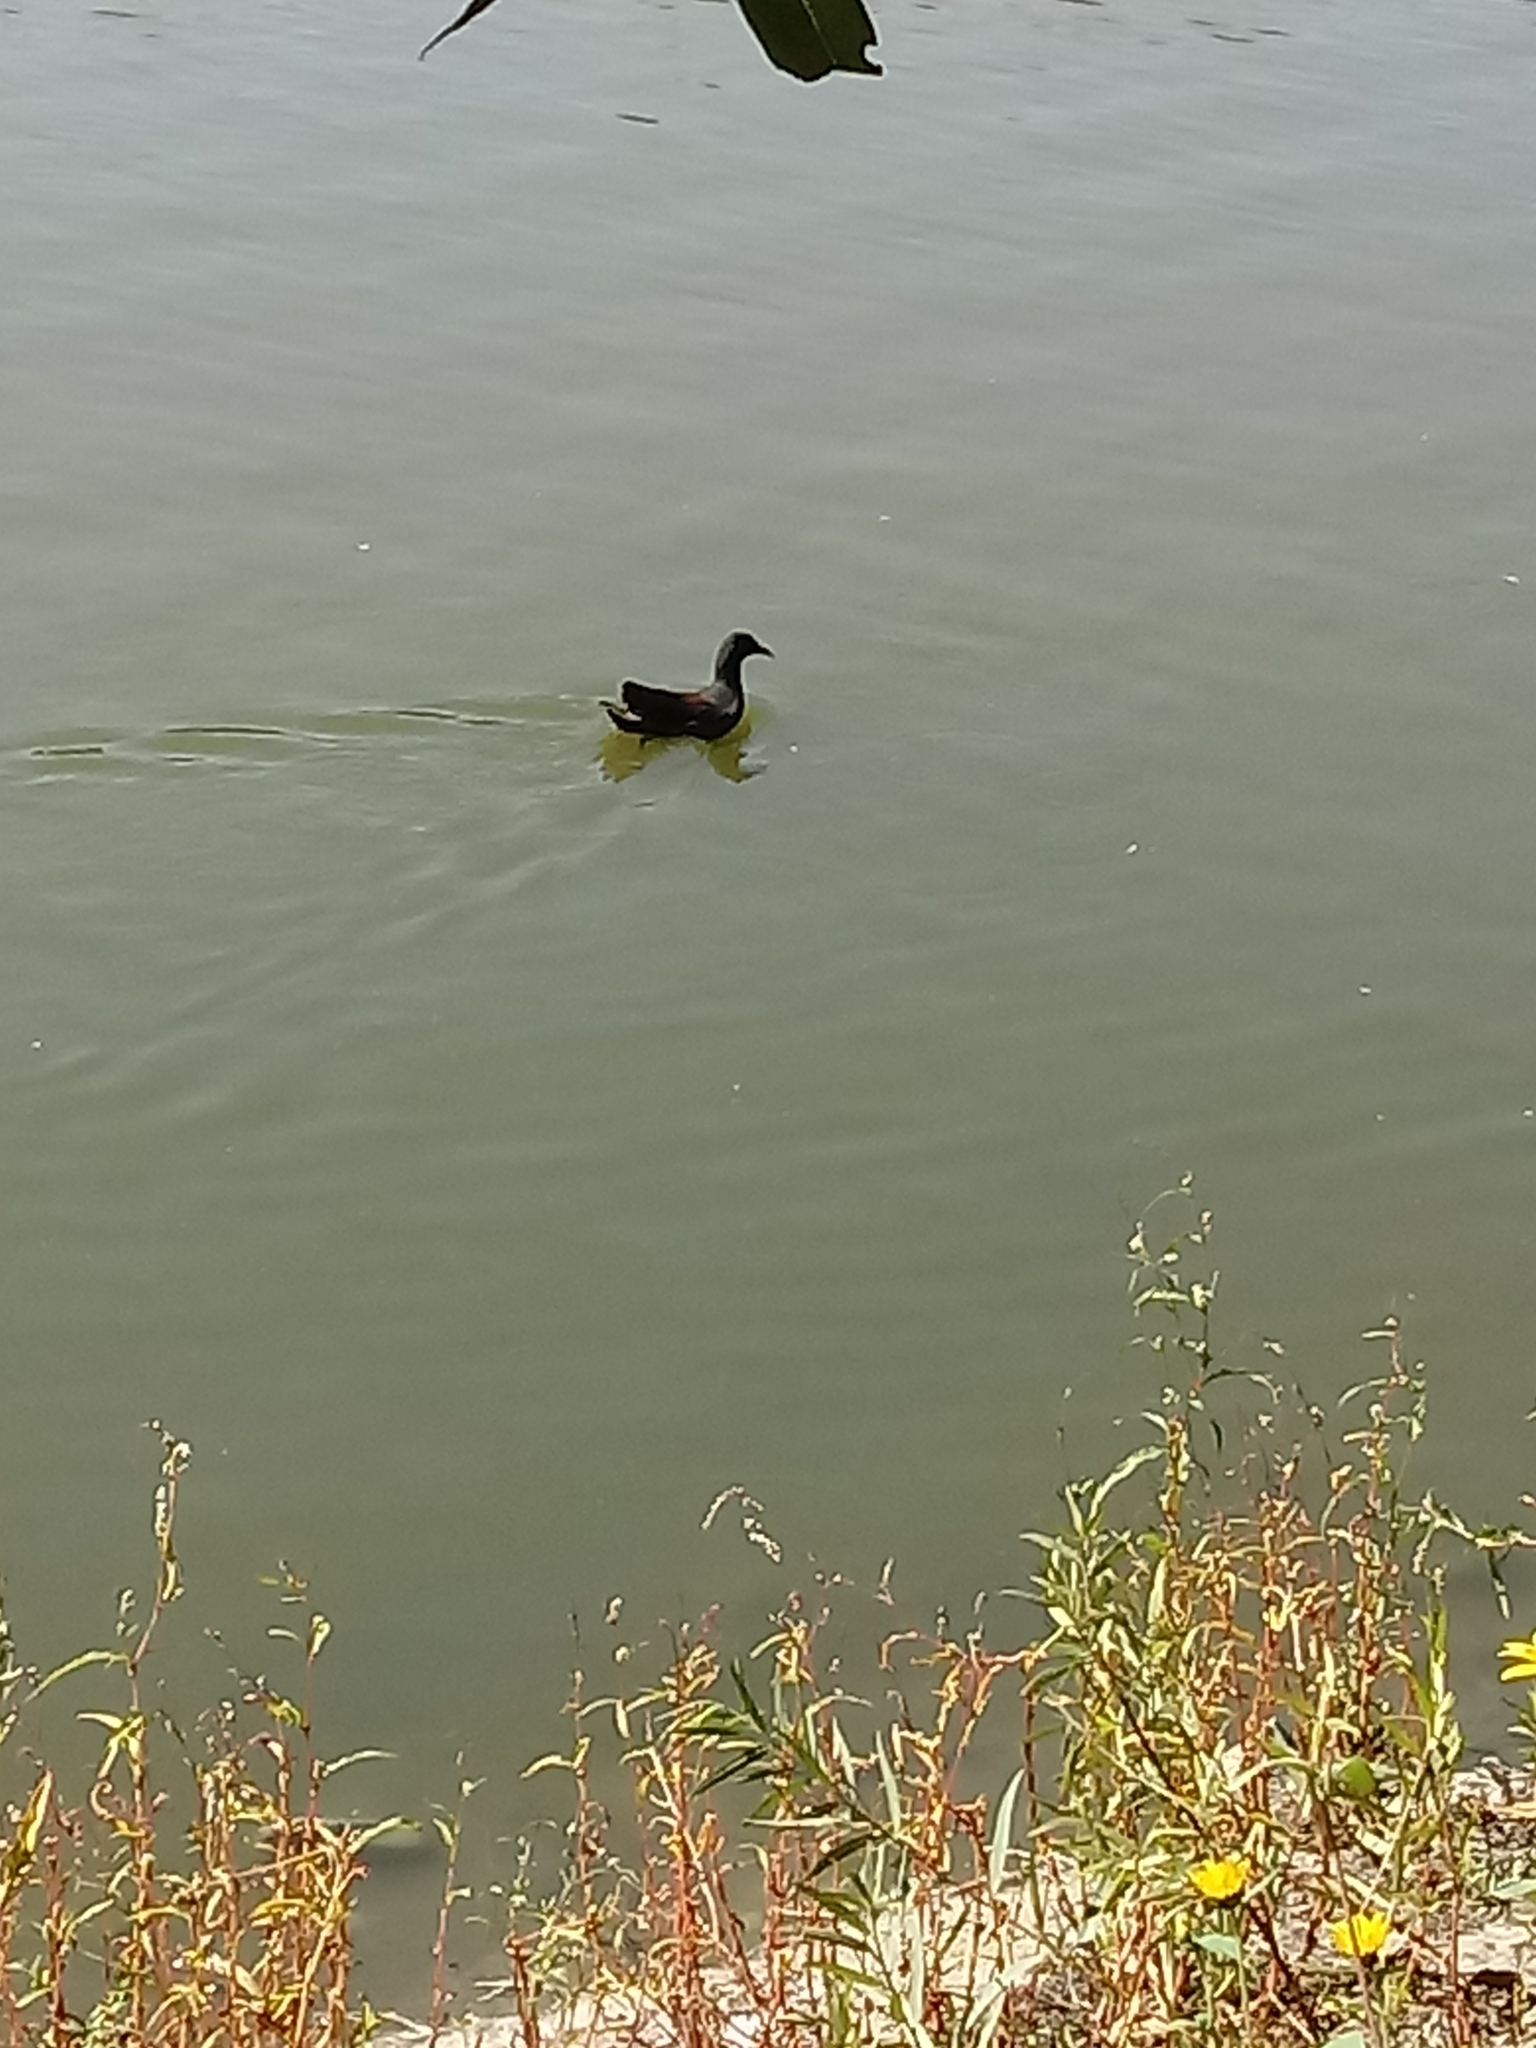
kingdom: Animalia
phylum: Chordata
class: Aves
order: Gruiformes
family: Rallidae
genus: Gallinula
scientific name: Gallinula chloropus
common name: Common moorhen
